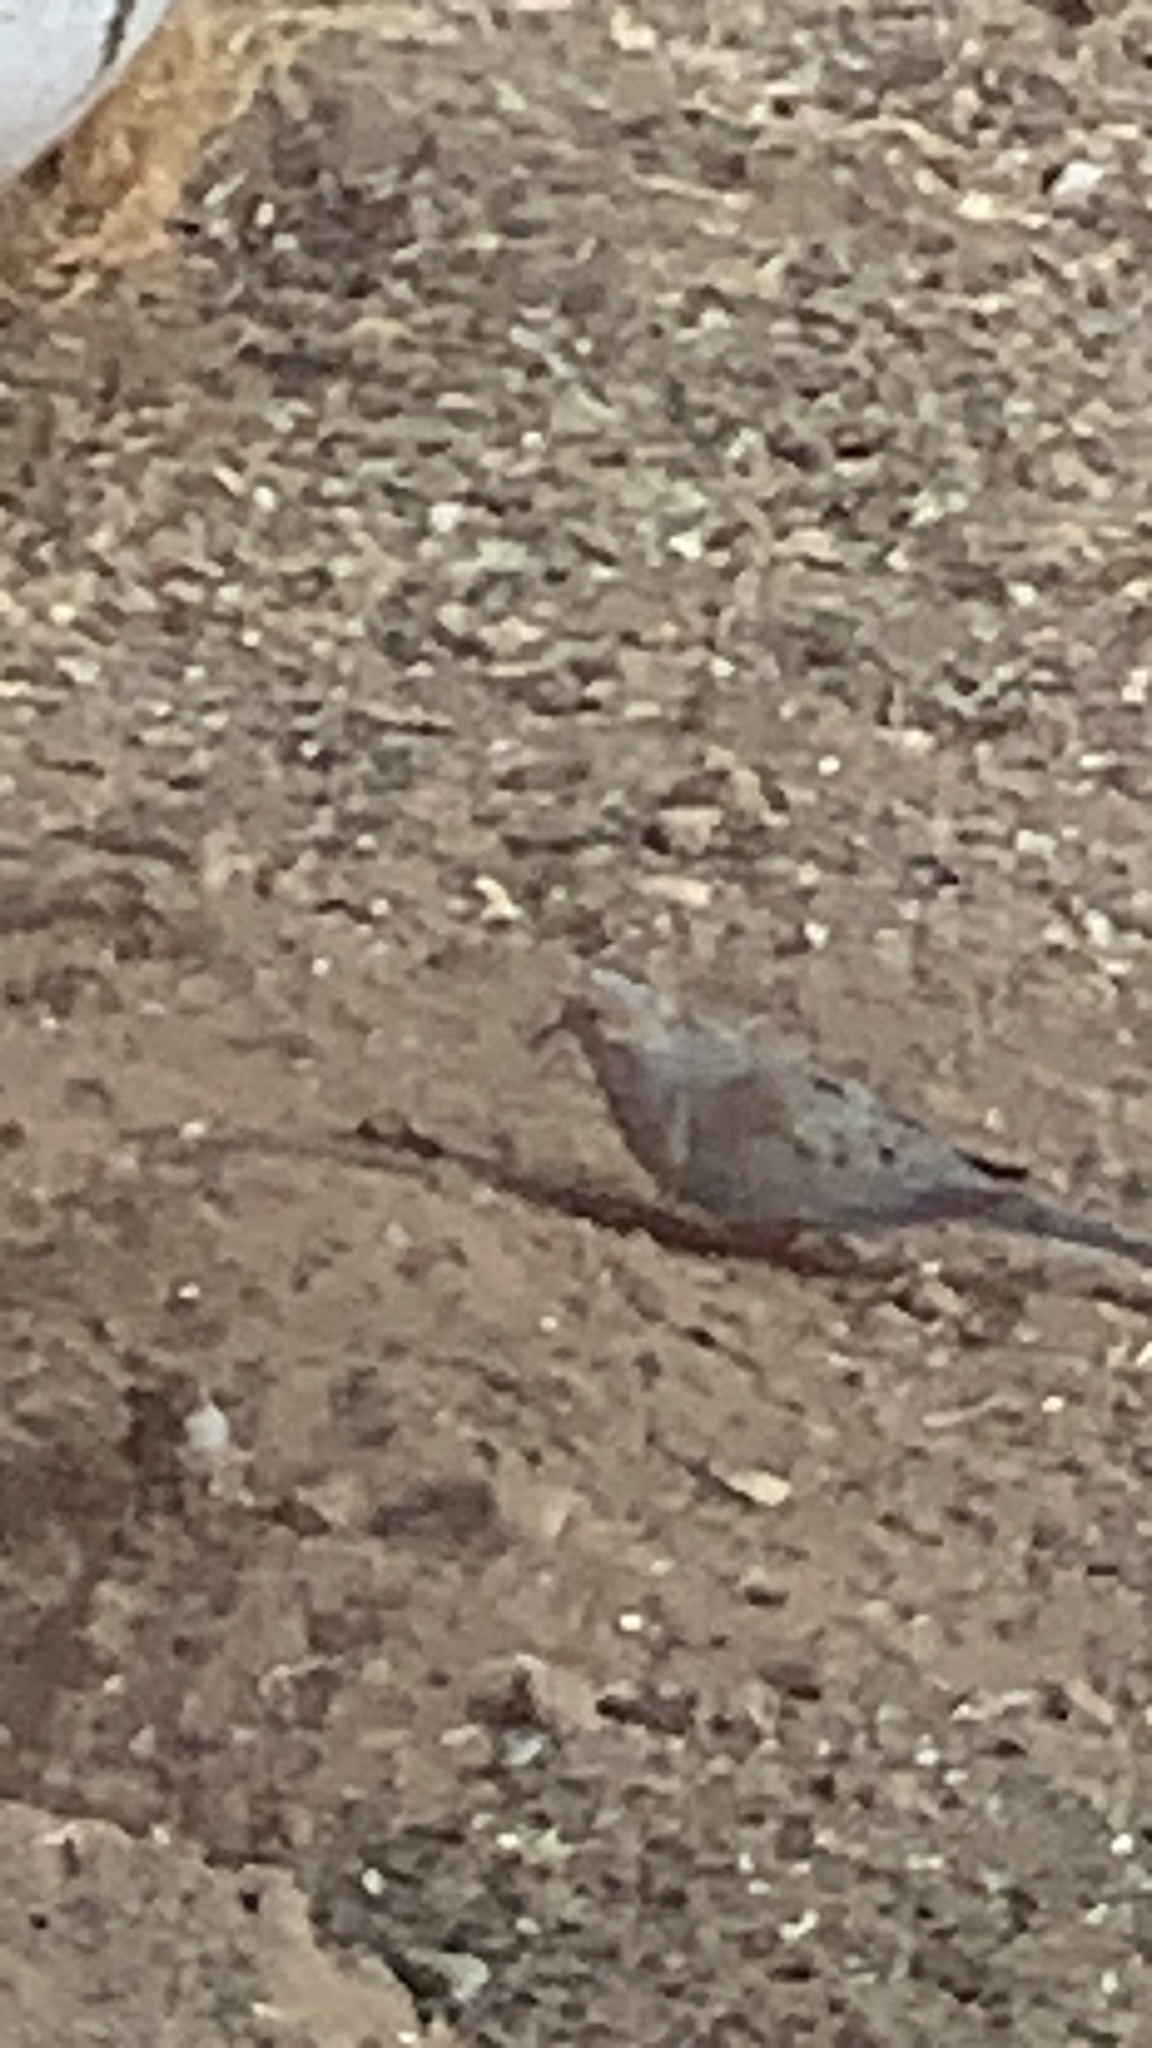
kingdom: Animalia
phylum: Chordata
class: Aves
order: Columbiformes
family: Columbidae
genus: Zenaida
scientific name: Zenaida macroura
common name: Mourning dove
